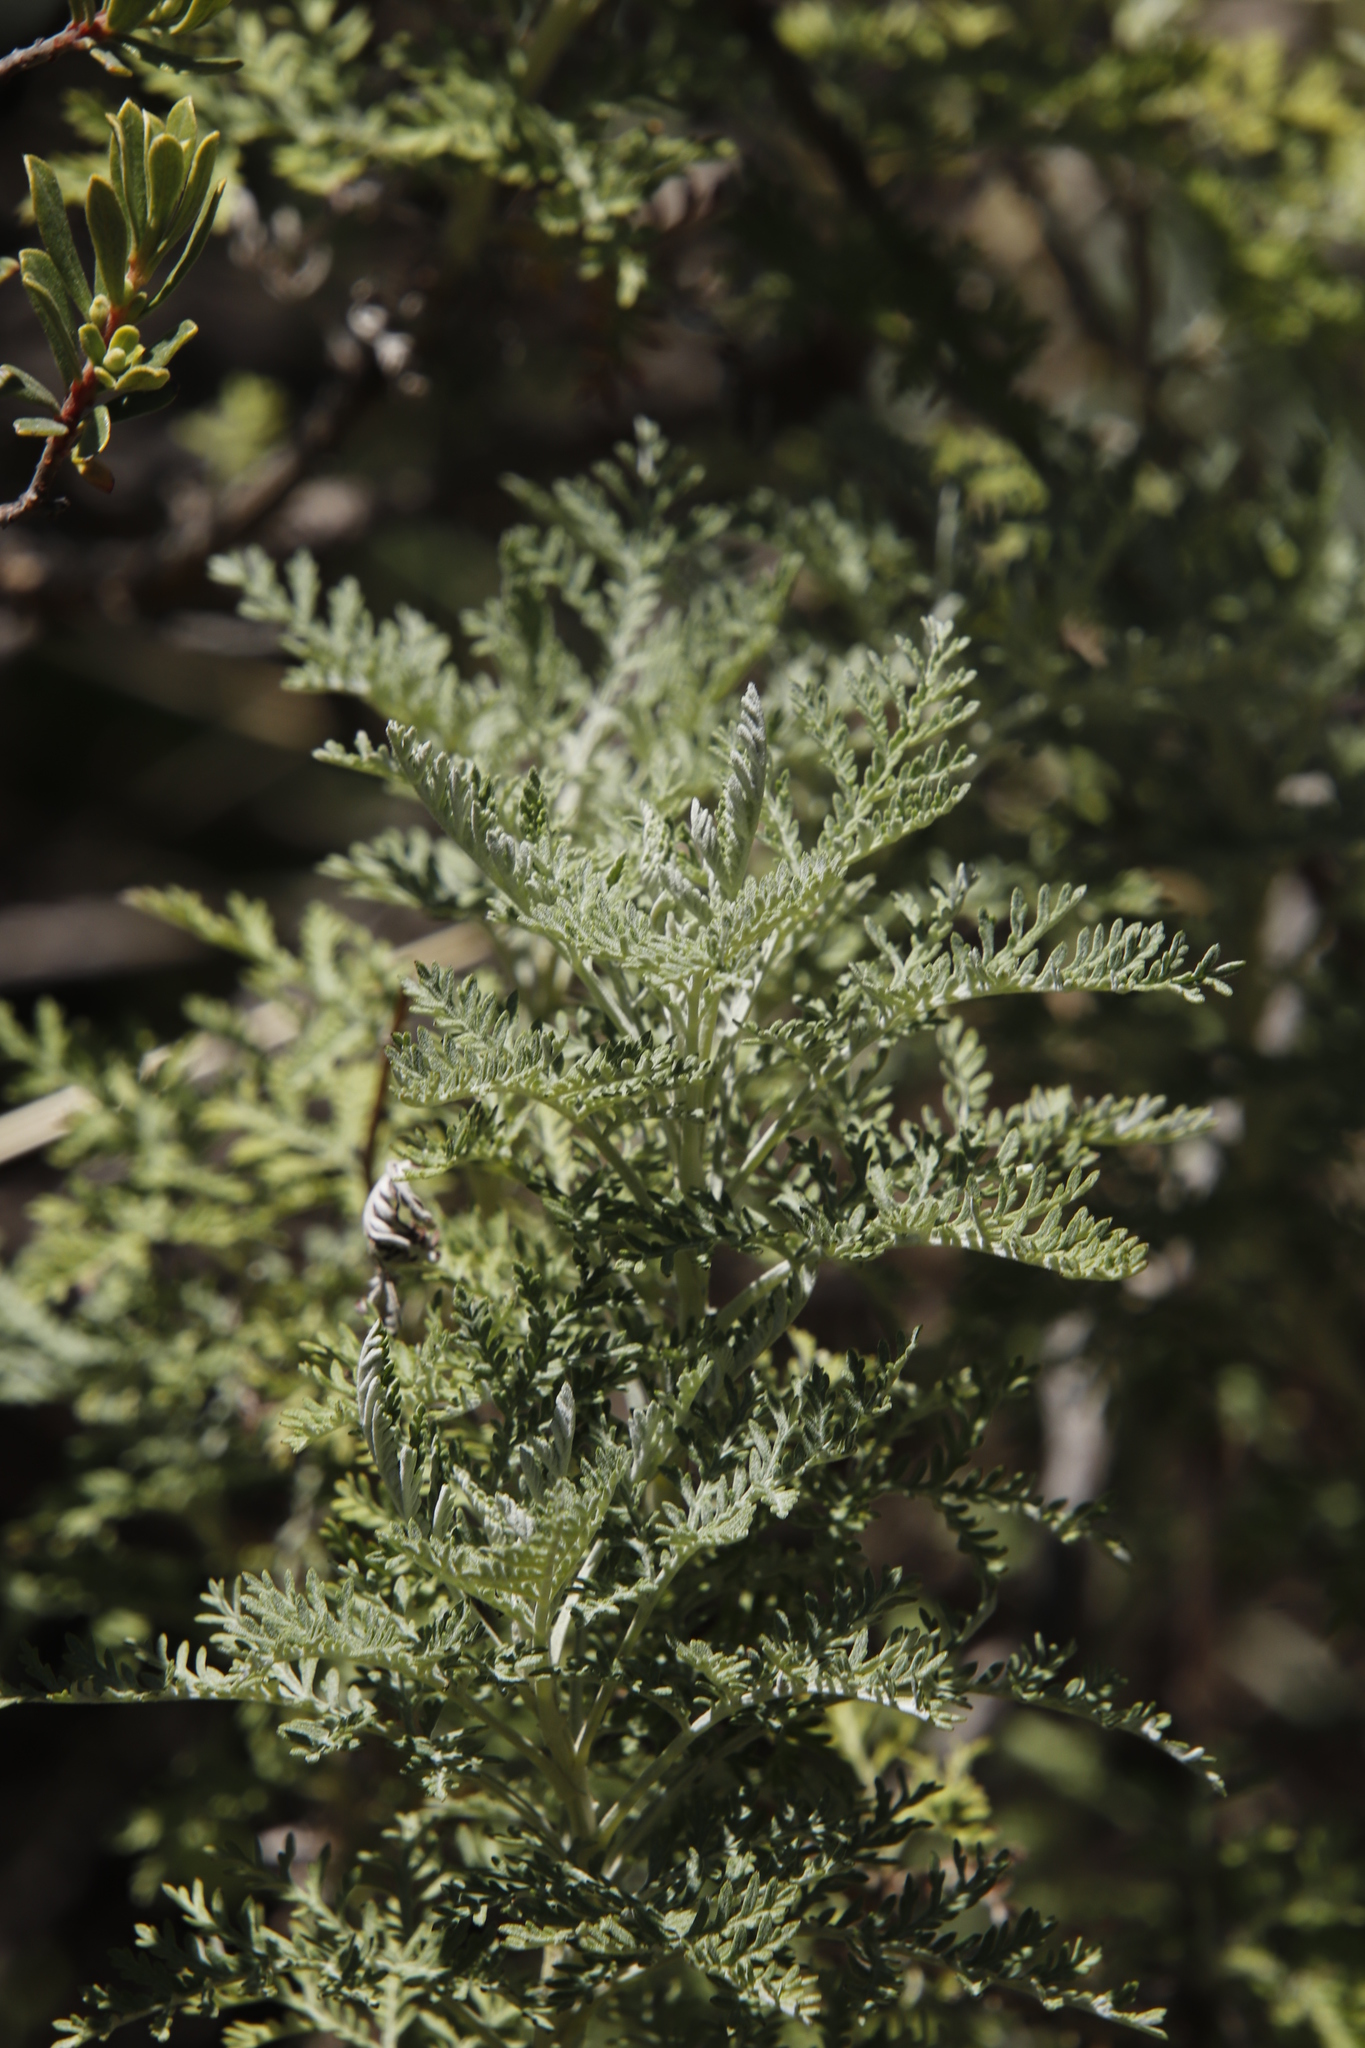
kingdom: Plantae
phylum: Tracheophyta
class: Magnoliopsida
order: Asterales
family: Asteraceae
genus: Artemisia
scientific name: Artemisia afra
